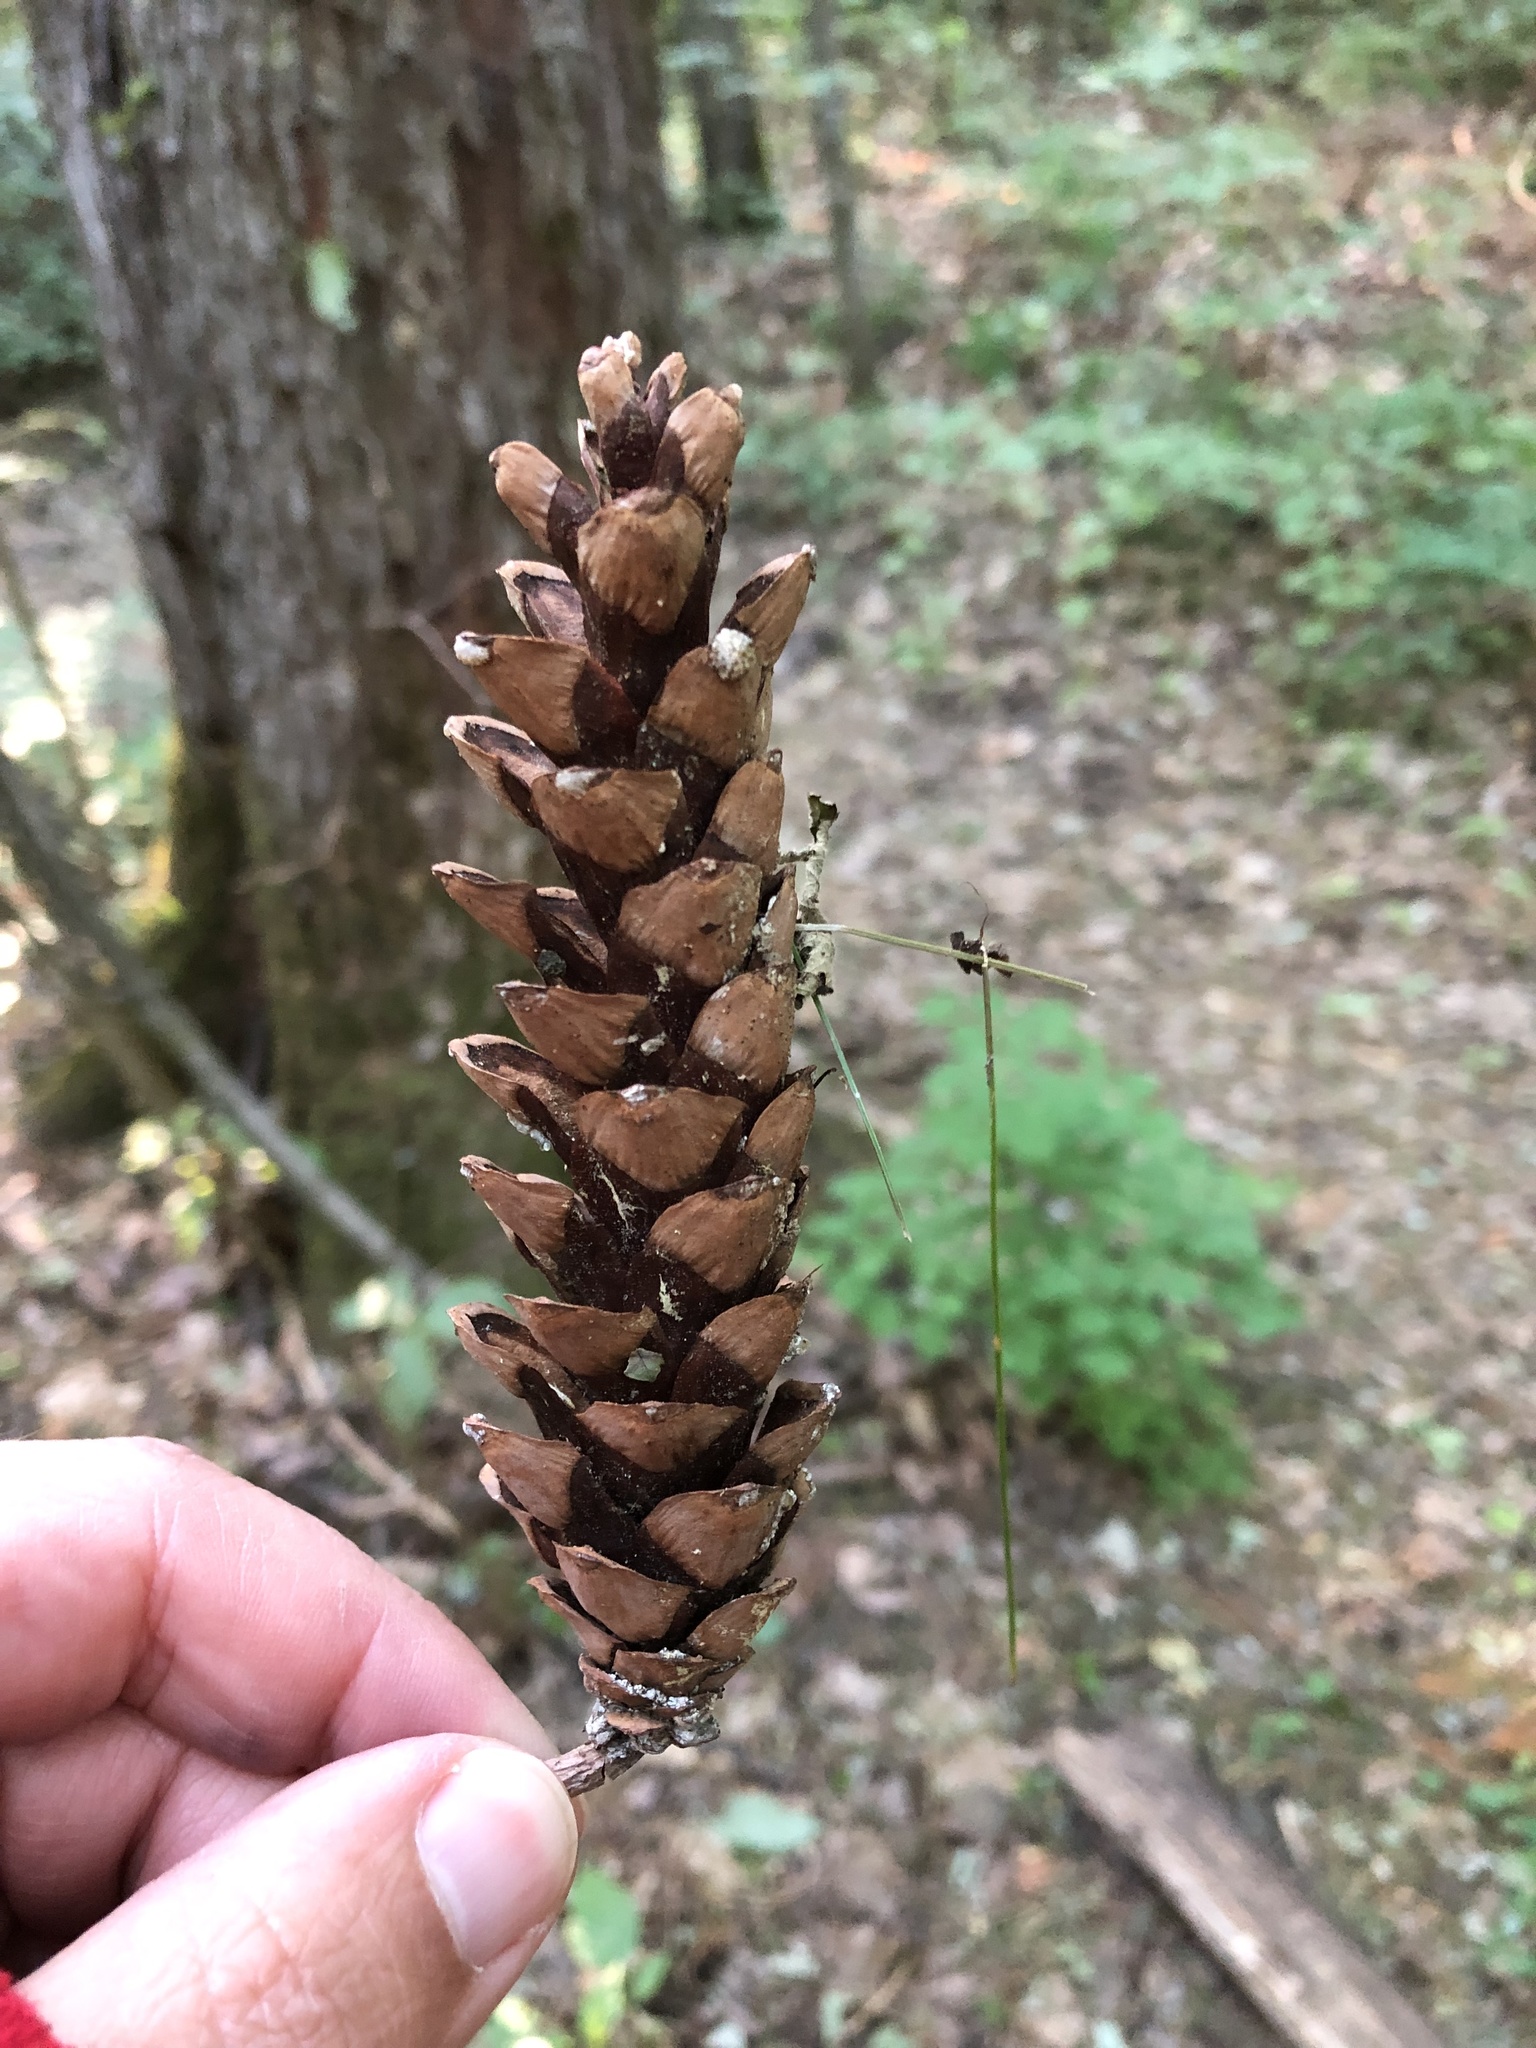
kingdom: Plantae
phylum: Tracheophyta
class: Pinopsida
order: Pinales
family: Pinaceae
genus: Pinus
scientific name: Pinus strobus
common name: Weymouth pine
